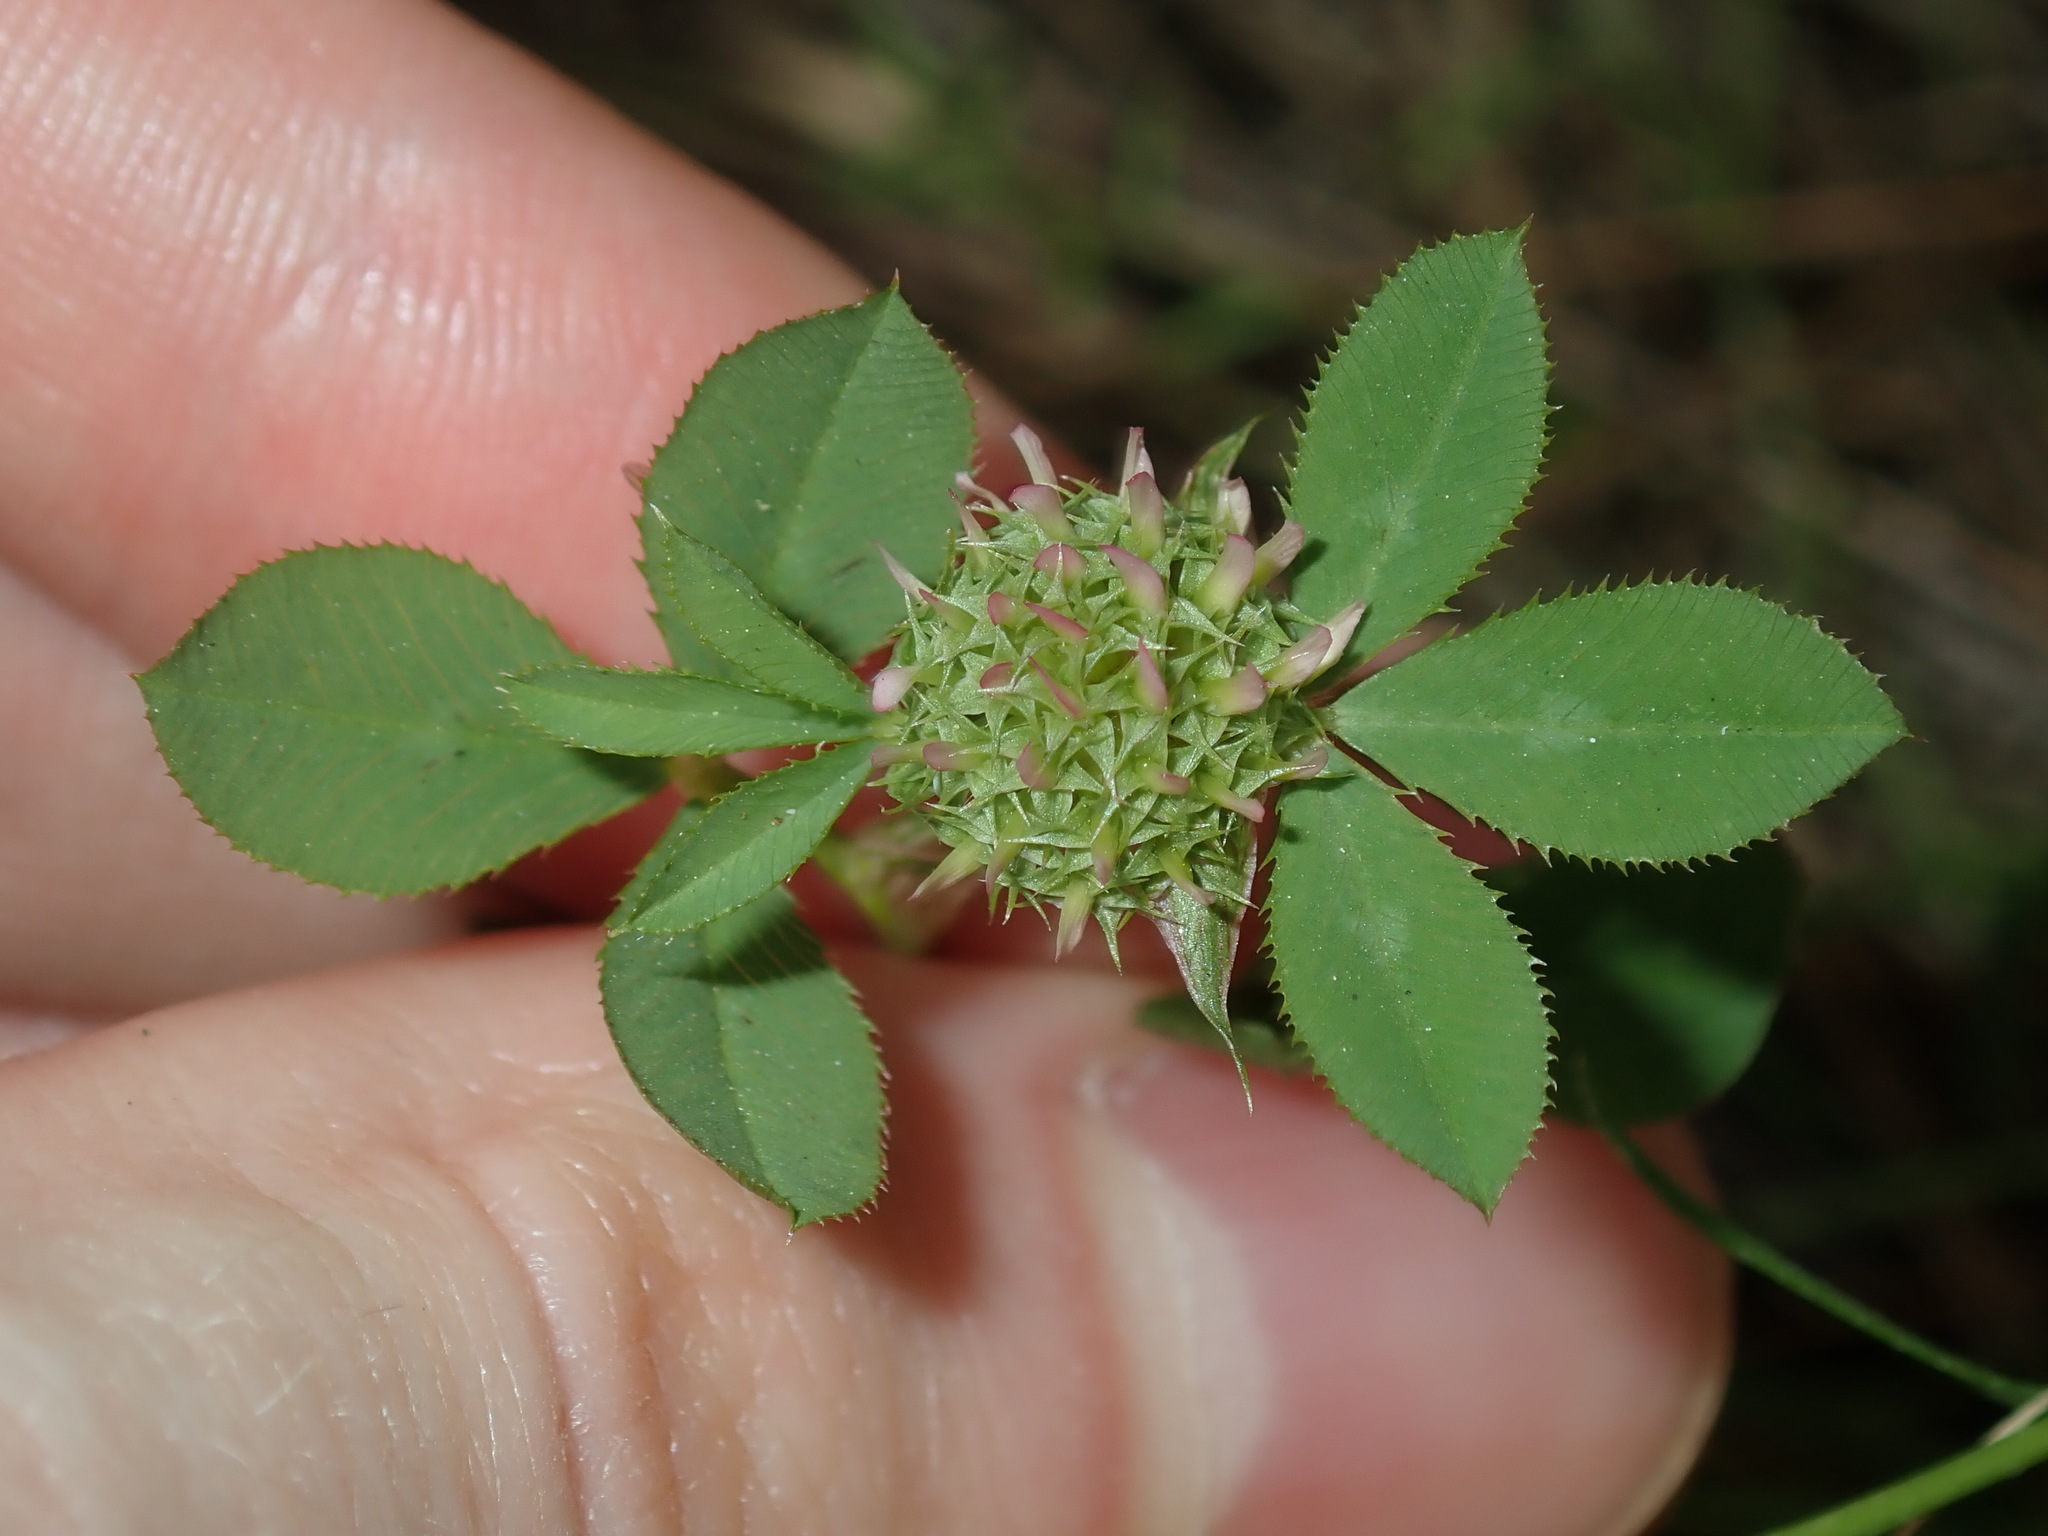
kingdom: Plantae
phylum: Tracheophyta
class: Magnoliopsida
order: Fabales
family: Fabaceae
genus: Trifolium
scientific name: Trifolium glomeratum
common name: Clustered clover
